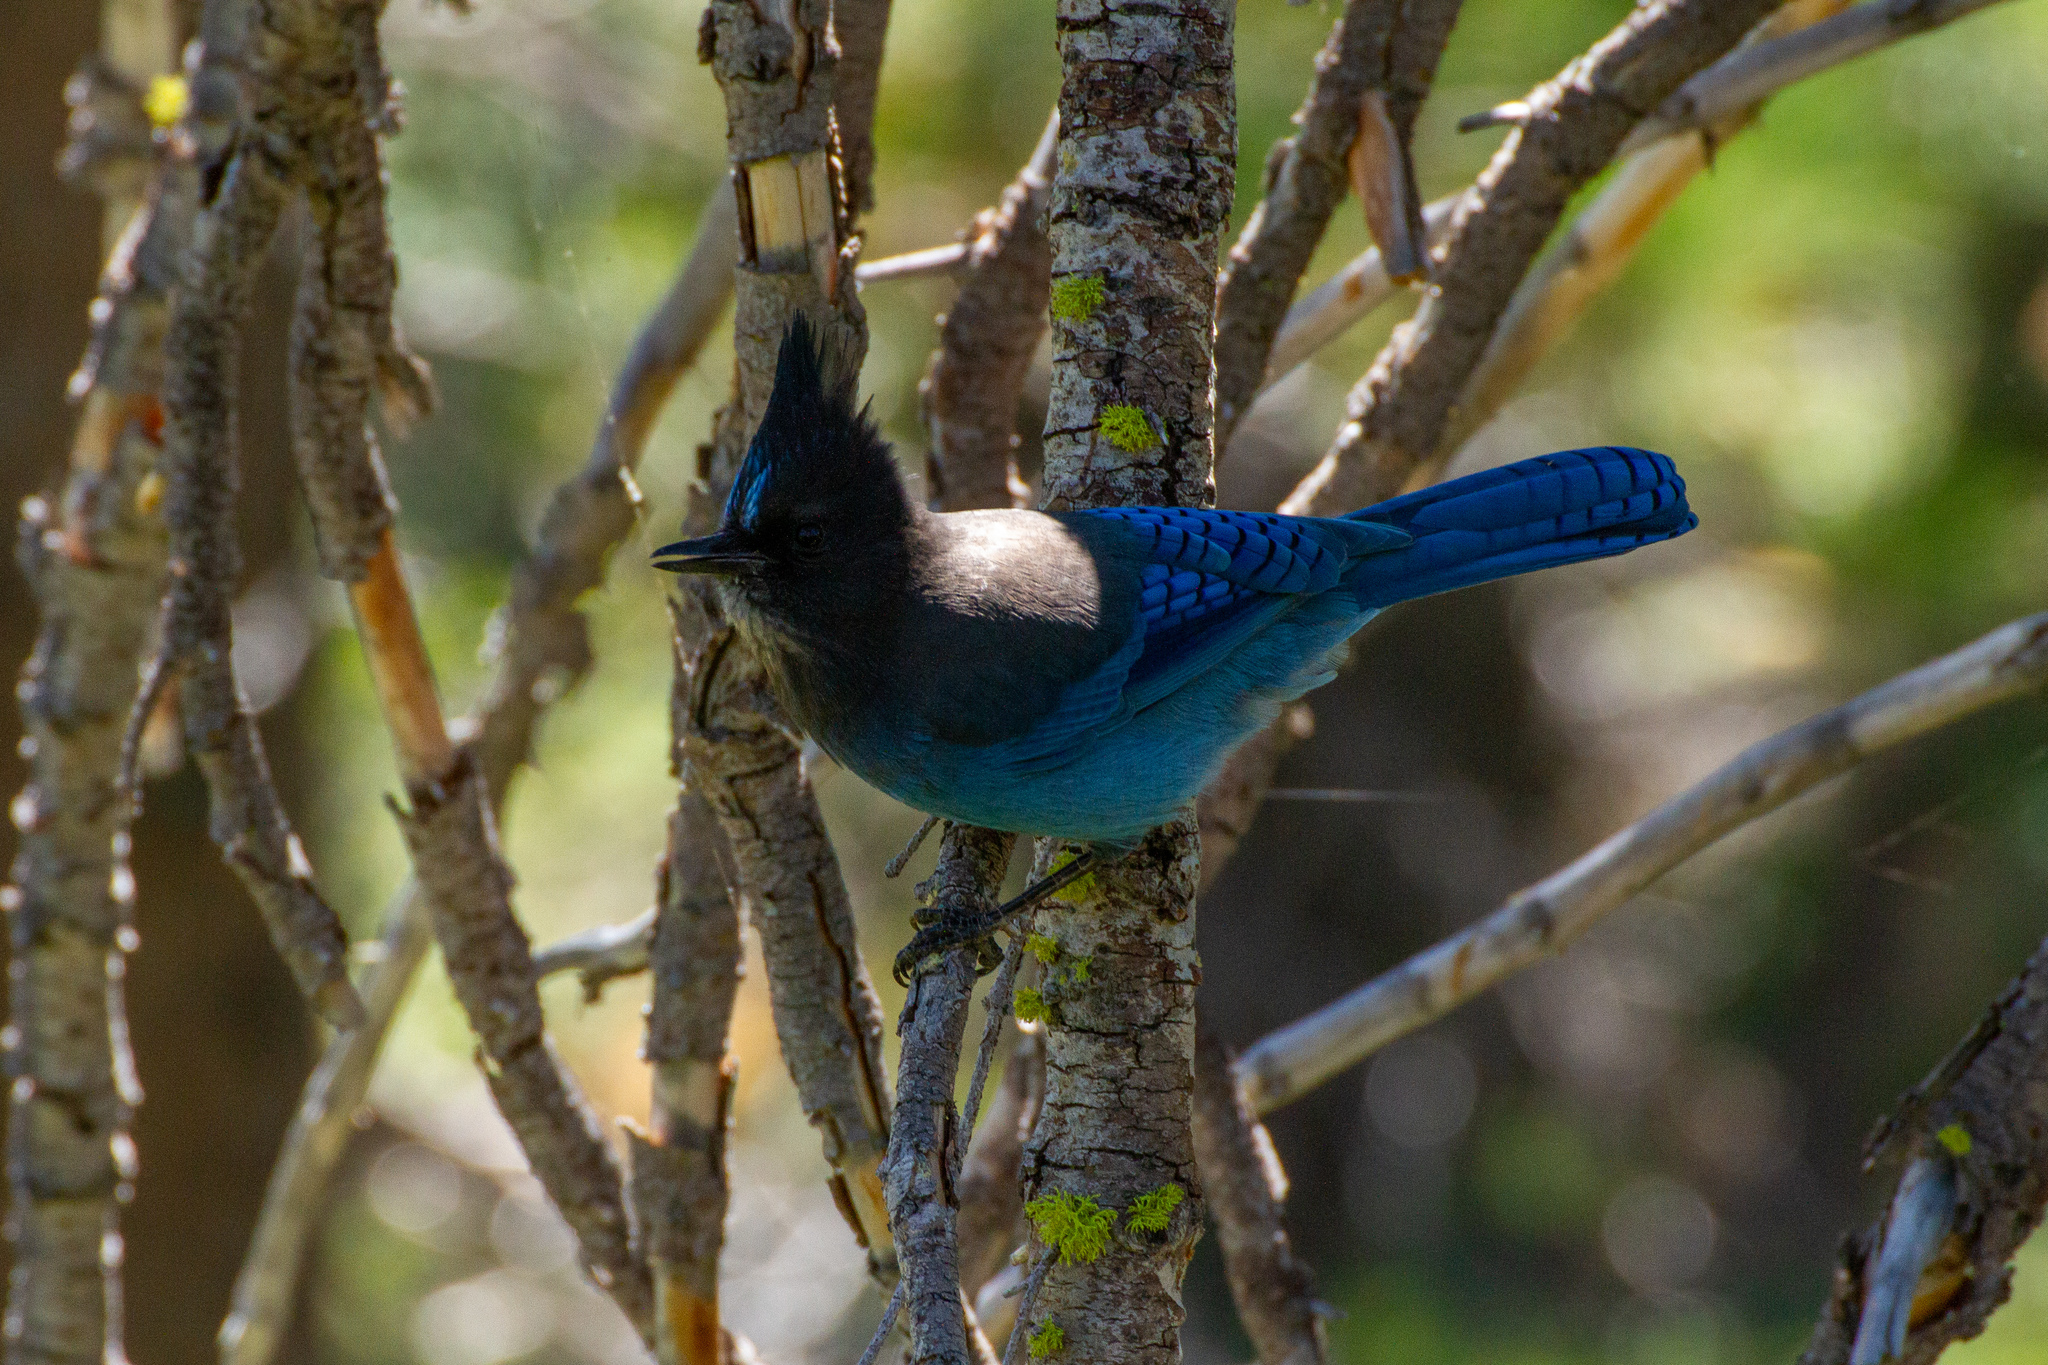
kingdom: Animalia
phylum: Chordata
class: Aves
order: Passeriformes
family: Corvidae
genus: Cyanocitta
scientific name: Cyanocitta stelleri
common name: Steller's jay
